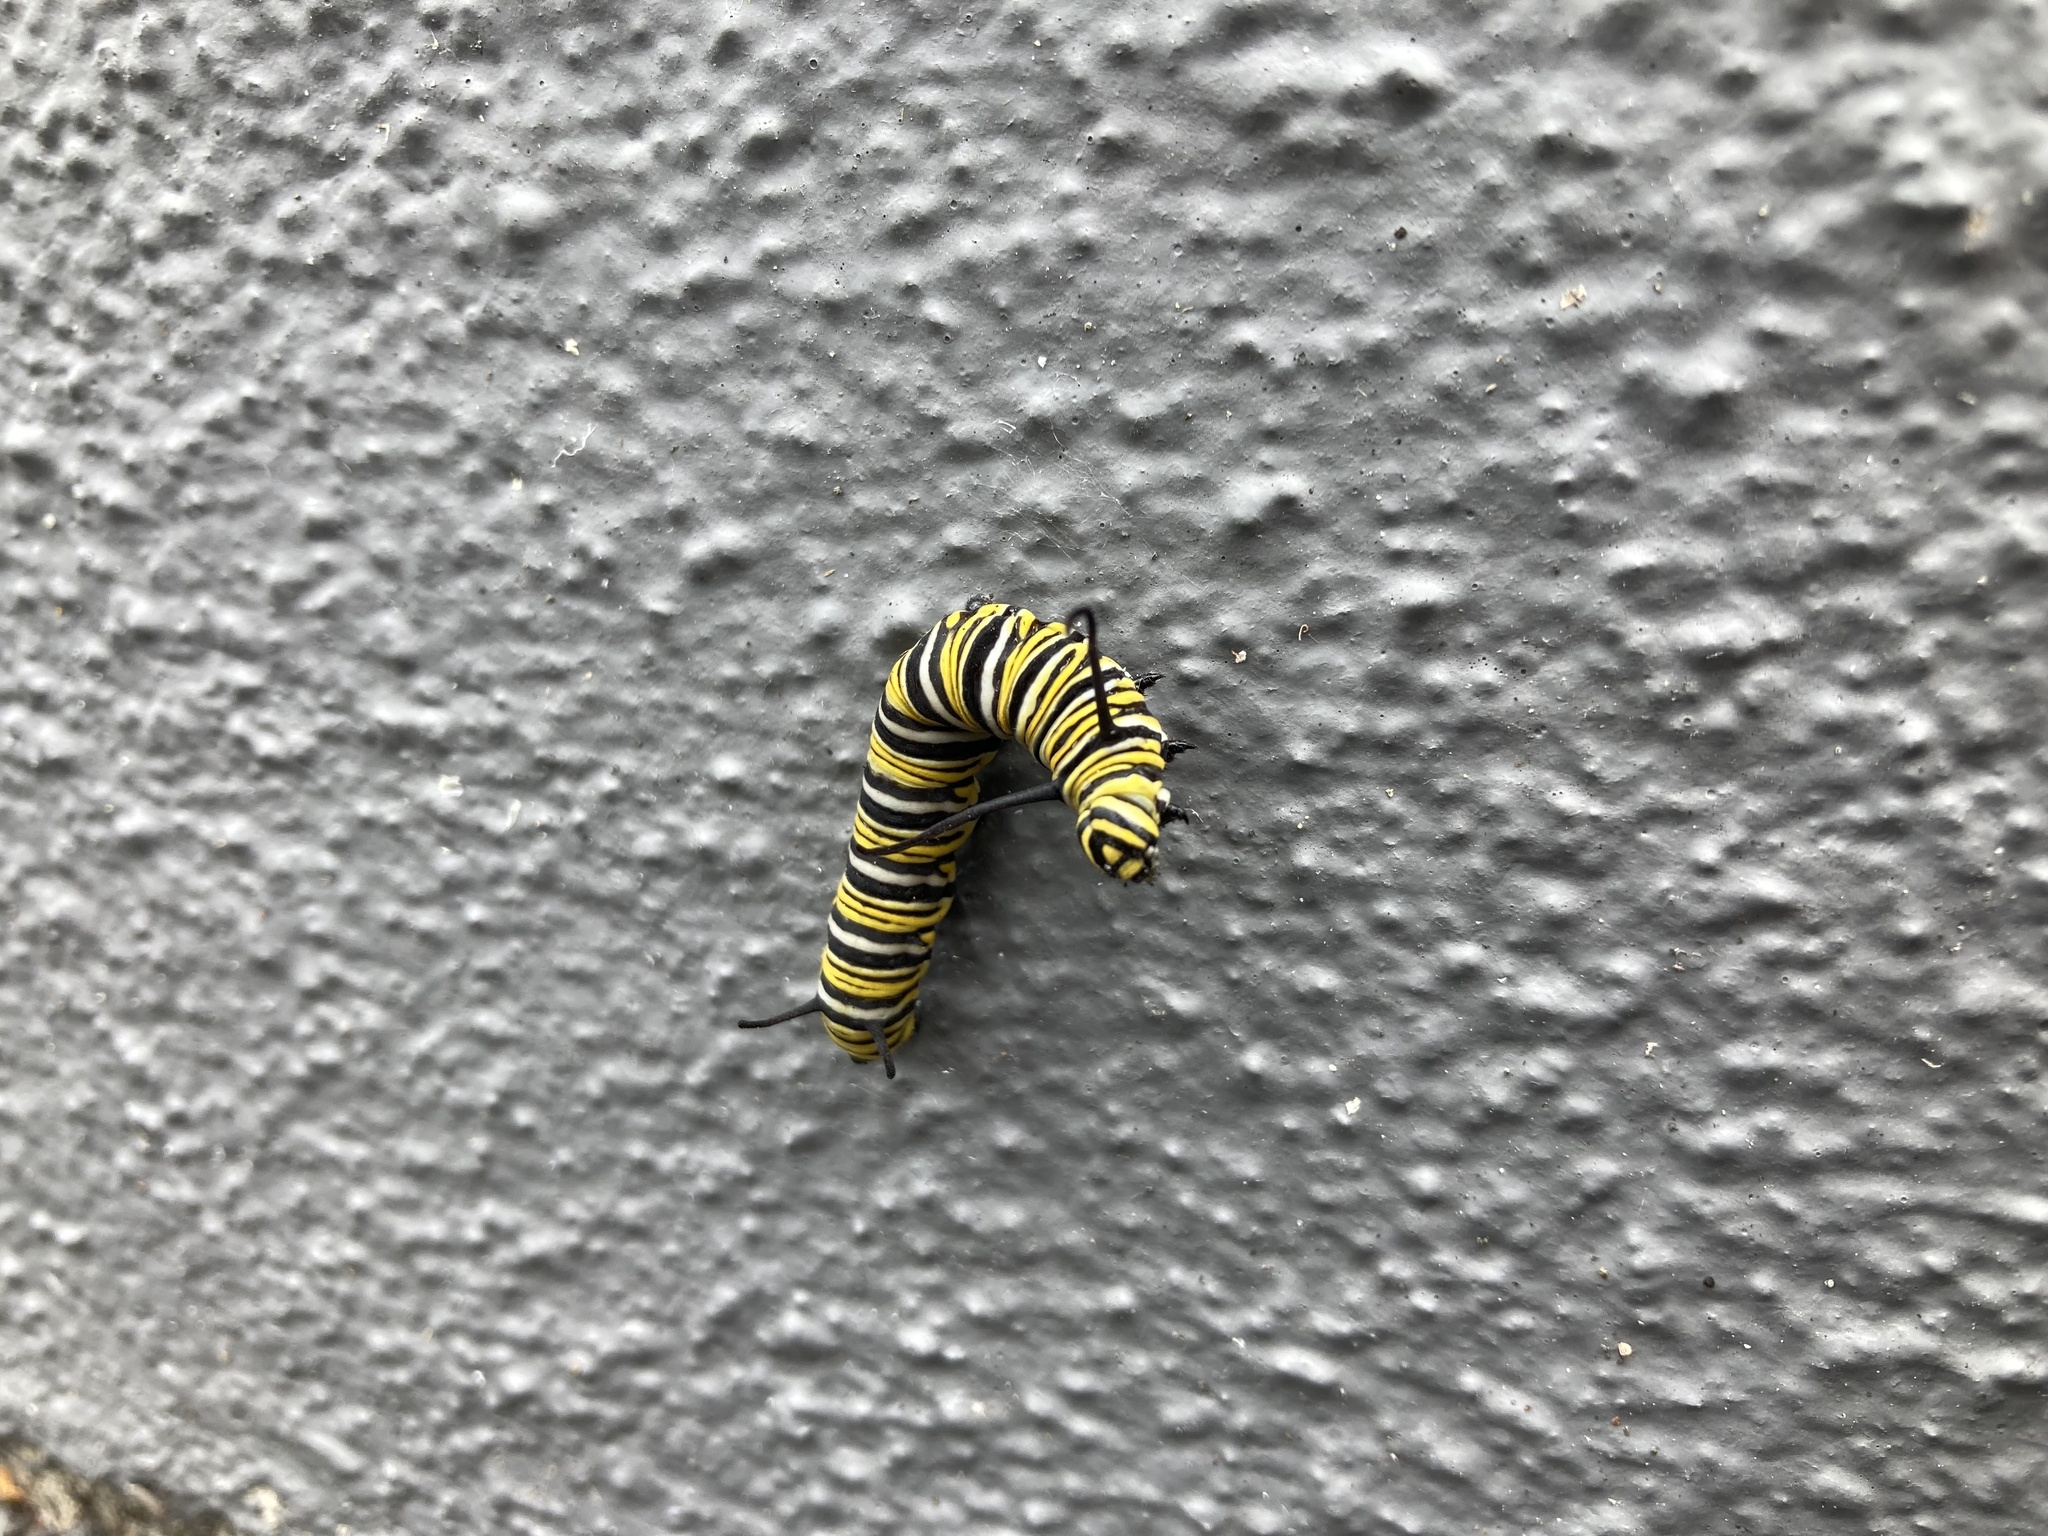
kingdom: Animalia
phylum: Arthropoda
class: Insecta
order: Lepidoptera
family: Nymphalidae
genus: Danaus
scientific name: Danaus plexippus
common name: Monarch
